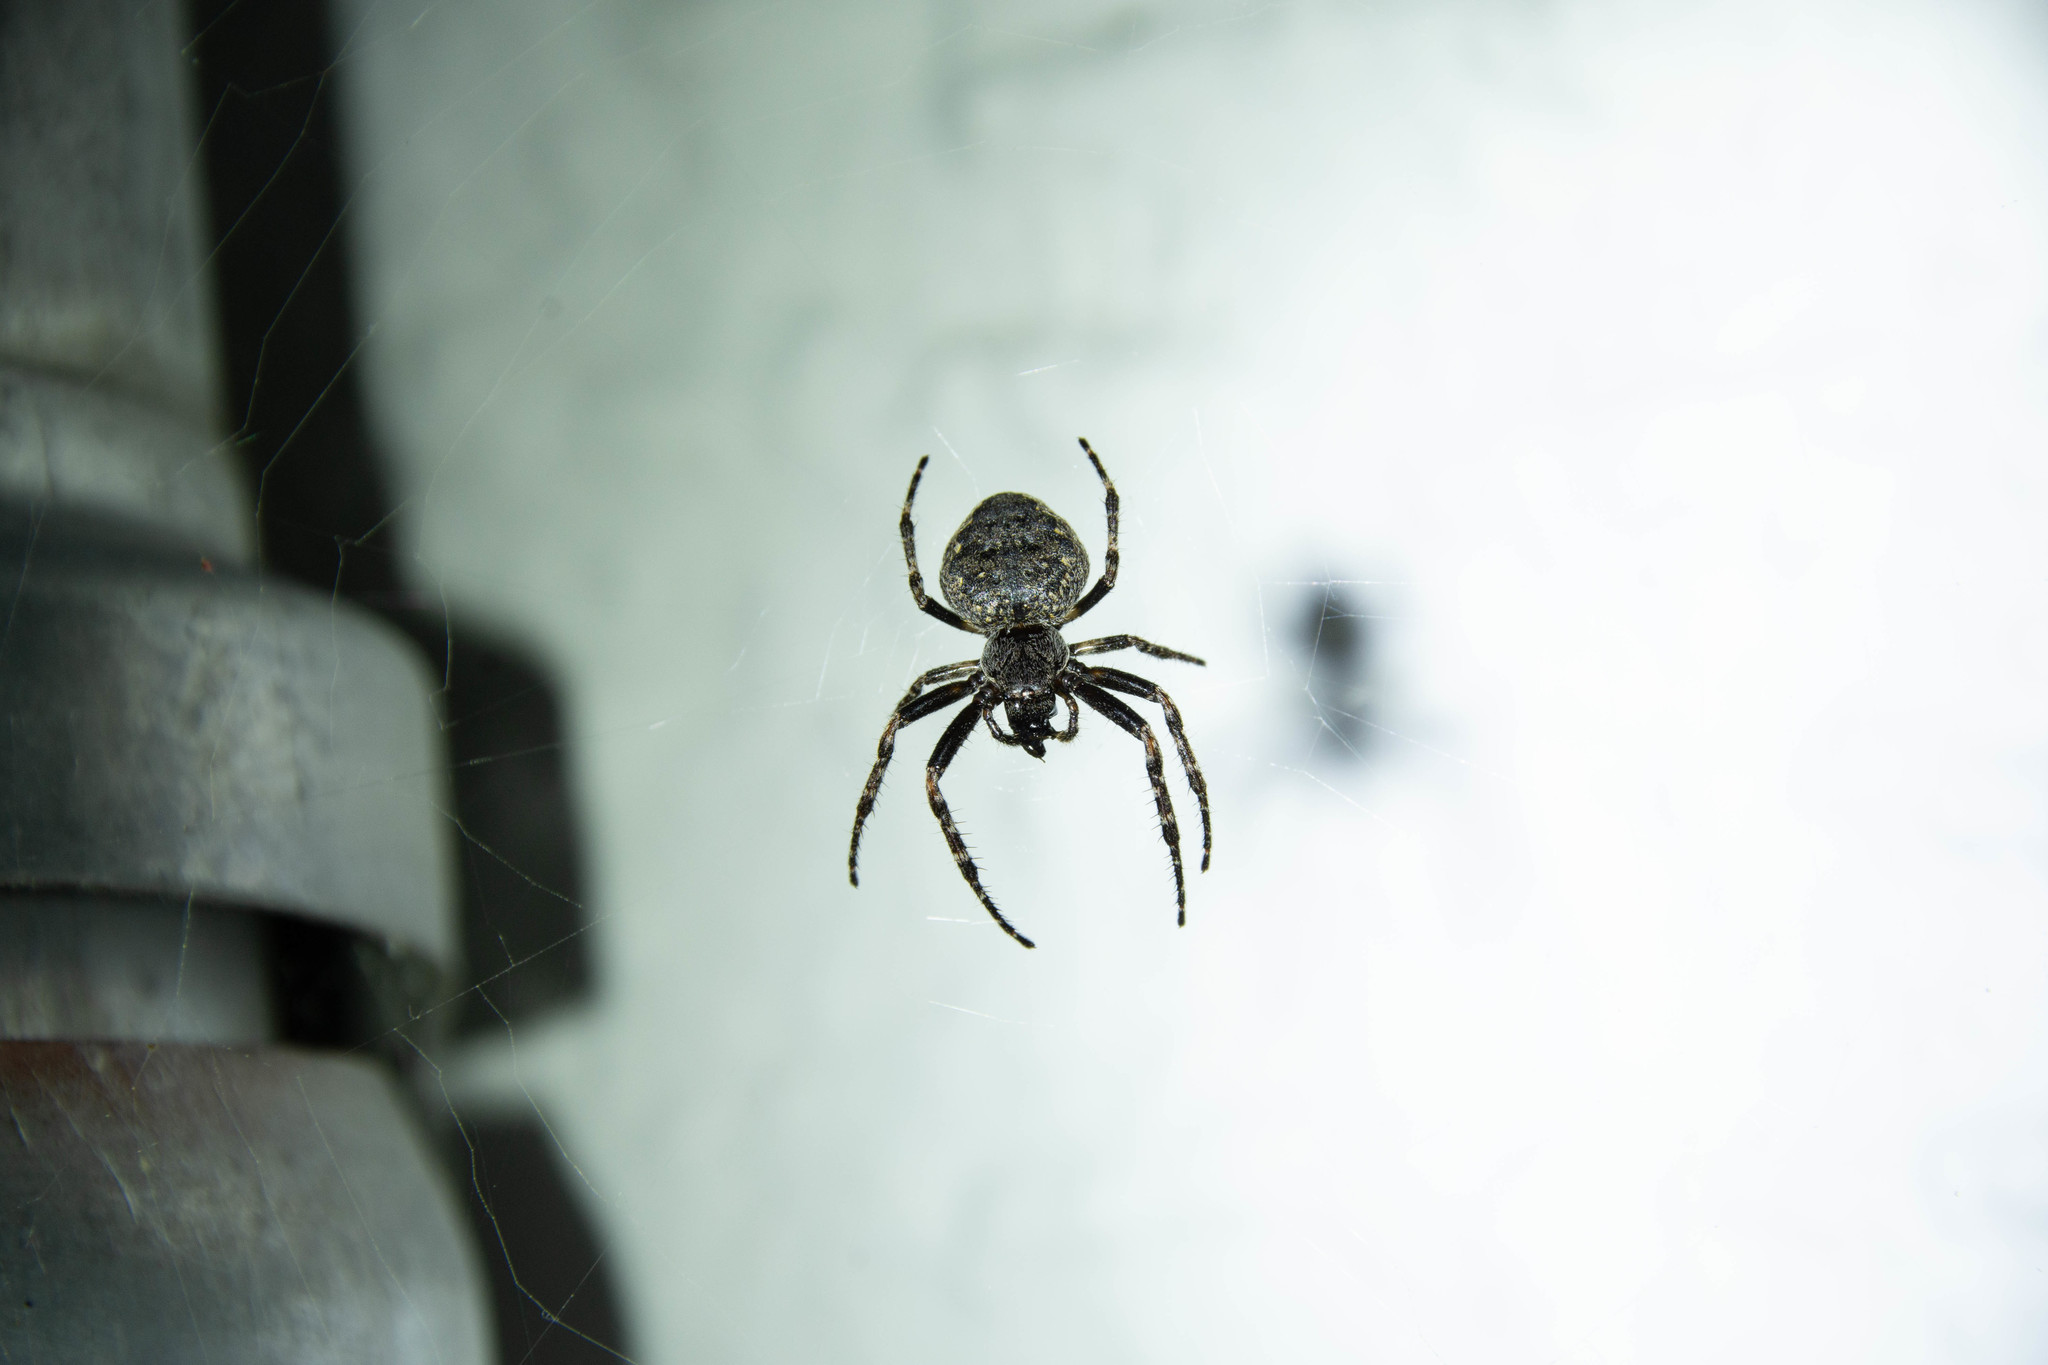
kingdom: Animalia
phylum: Arthropoda
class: Arachnida
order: Araneae
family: Araneidae
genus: Nuctenea
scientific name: Nuctenea umbratica
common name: Toad spider
